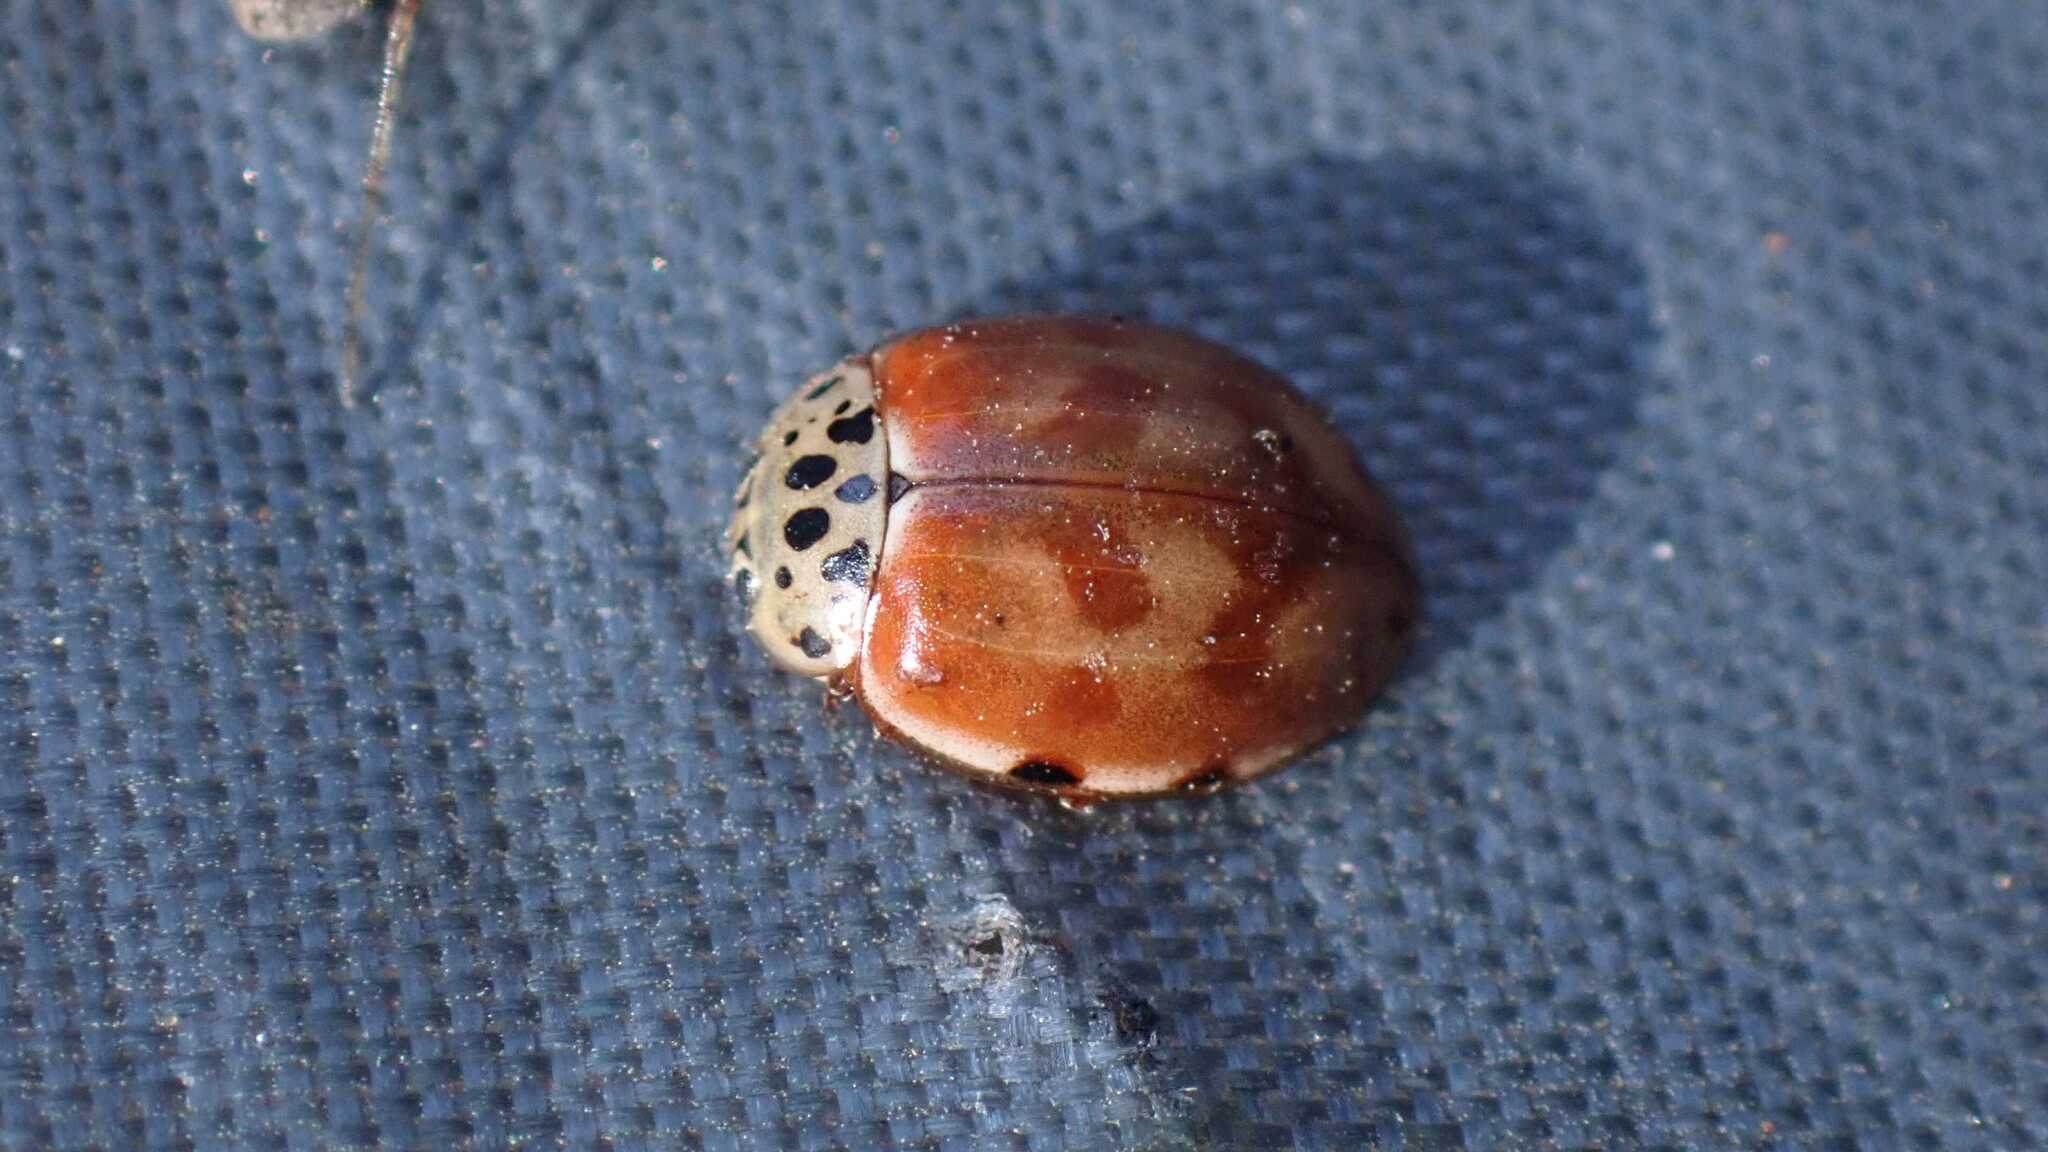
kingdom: Animalia
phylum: Arthropoda
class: Insecta
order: Coleoptera
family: Coccinellidae
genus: Harmonia
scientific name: Harmonia quadripunctata
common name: Cream-streaked ladybird
